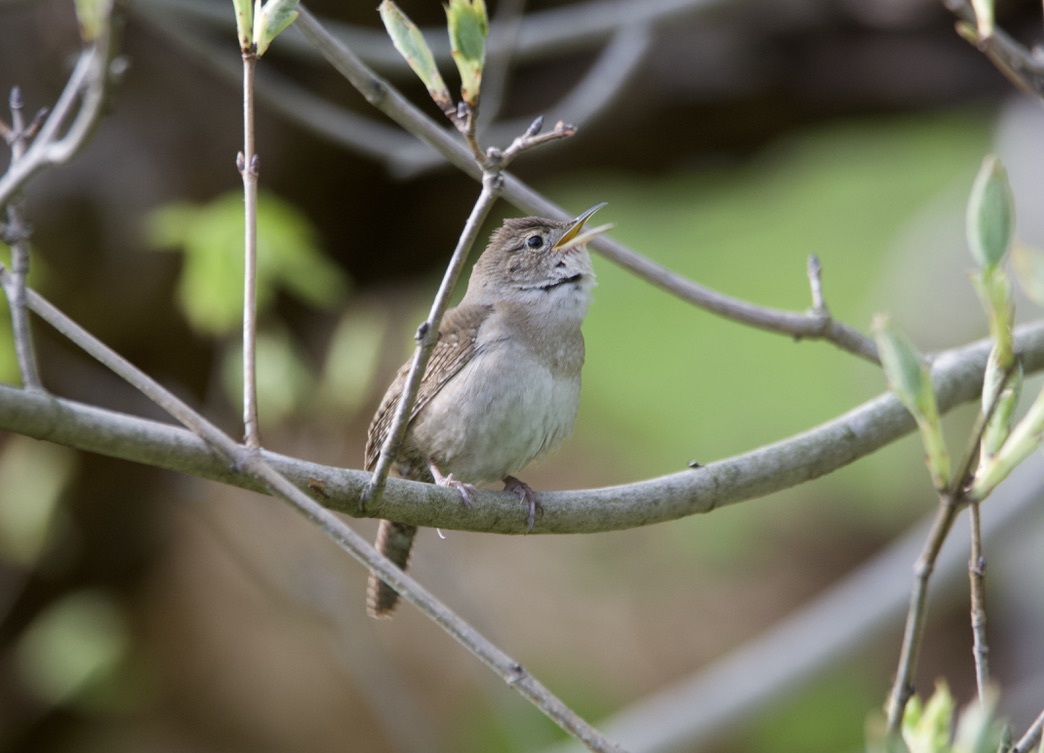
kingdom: Animalia
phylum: Chordata
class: Aves
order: Passeriformes
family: Troglodytidae
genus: Troglodytes
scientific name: Troglodytes aedon
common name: House wren
